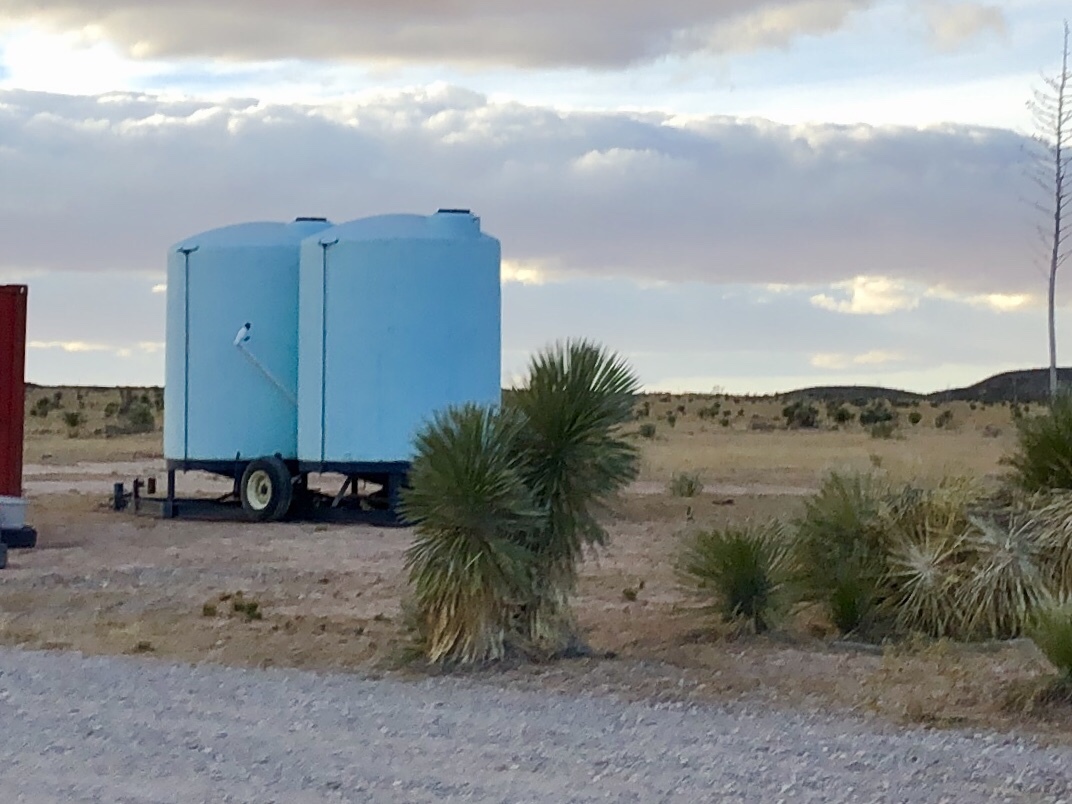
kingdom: Plantae
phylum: Tracheophyta
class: Liliopsida
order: Asparagales
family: Asparagaceae
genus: Yucca
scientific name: Yucca elata
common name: Palmella
